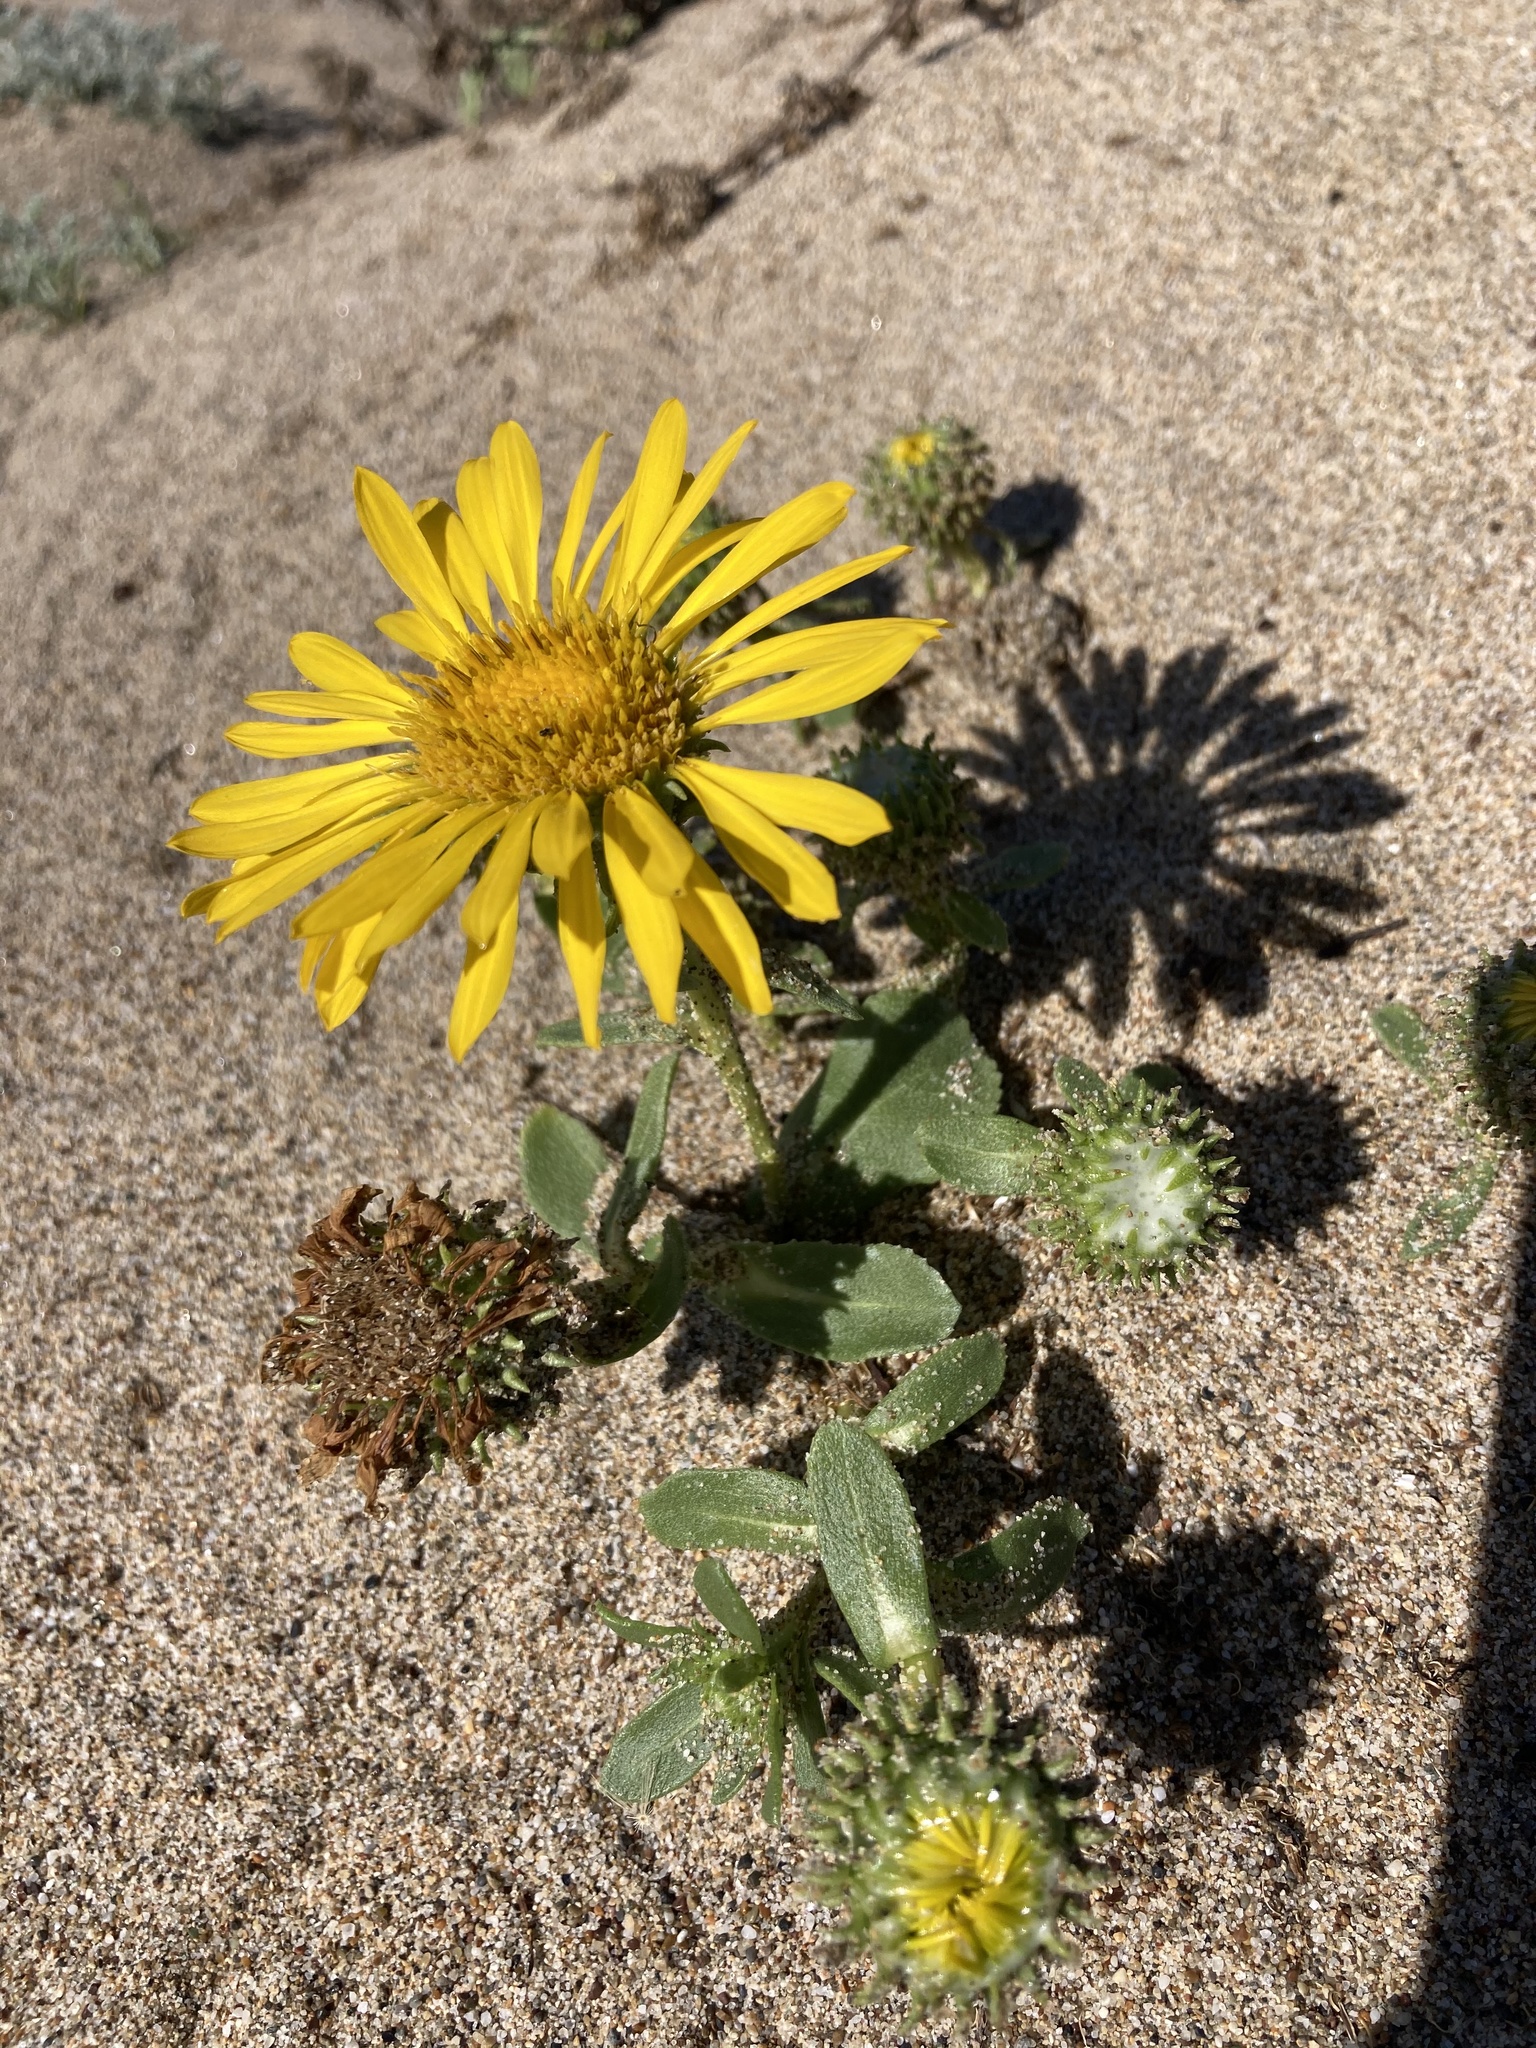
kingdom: Plantae
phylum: Tracheophyta
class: Magnoliopsida
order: Asterales
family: Asteraceae
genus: Grindelia
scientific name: Grindelia hirsutula
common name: Hairy gumweed
